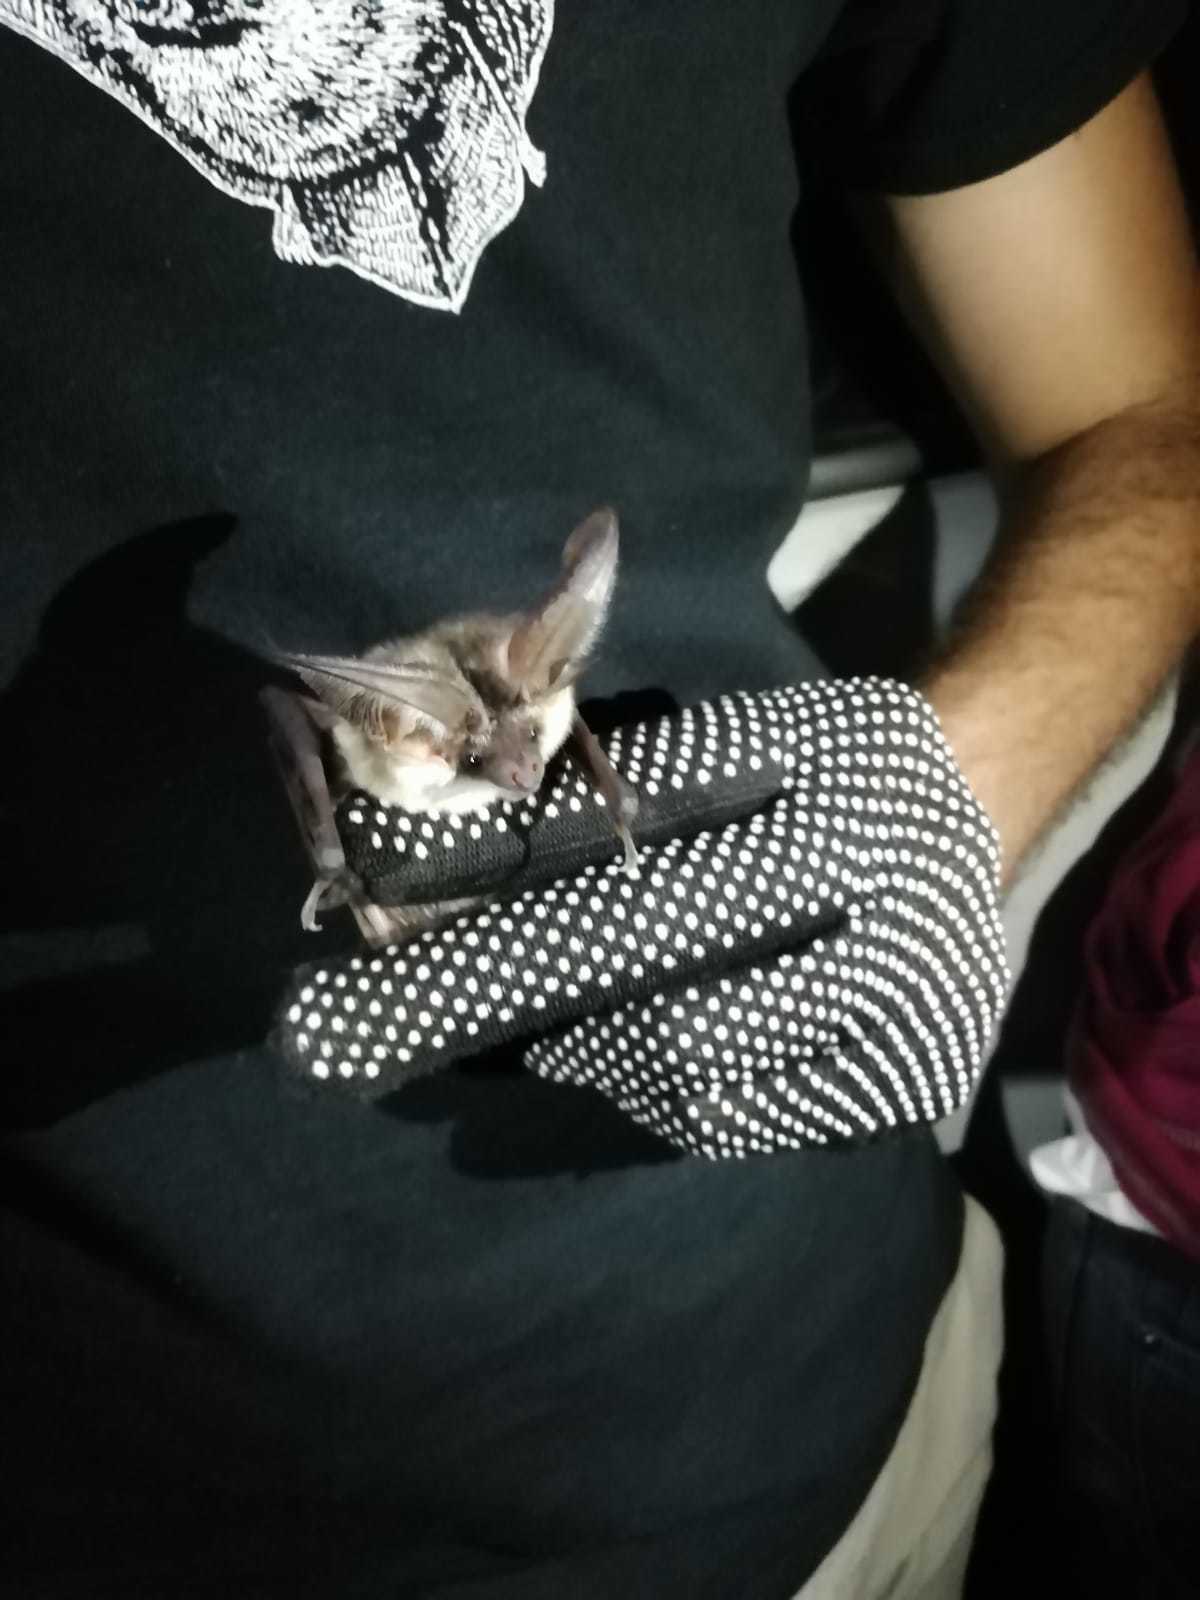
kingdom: Animalia
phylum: Chordata
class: Mammalia
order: Chiroptera
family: Vespertilionidae
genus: Plecotus
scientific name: Plecotus austriacus
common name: Grey long-eared bat
